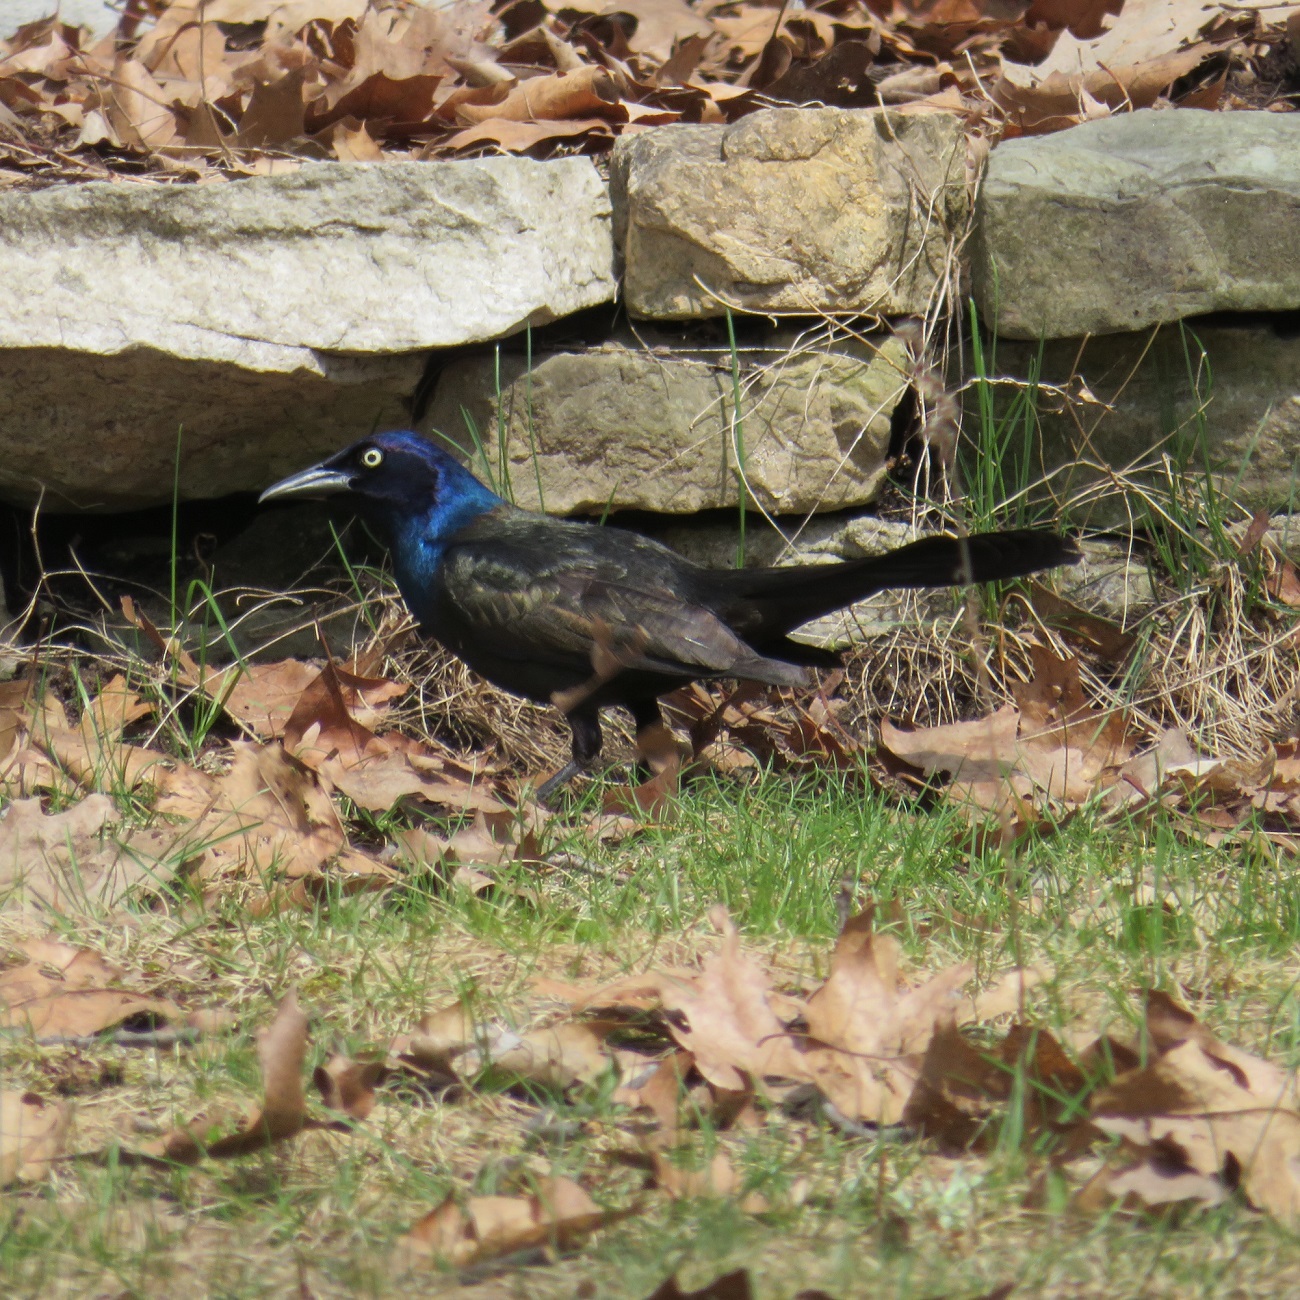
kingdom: Animalia
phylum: Chordata
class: Aves
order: Passeriformes
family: Icteridae
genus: Quiscalus
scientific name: Quiscalus quiscula
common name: Common grackle
